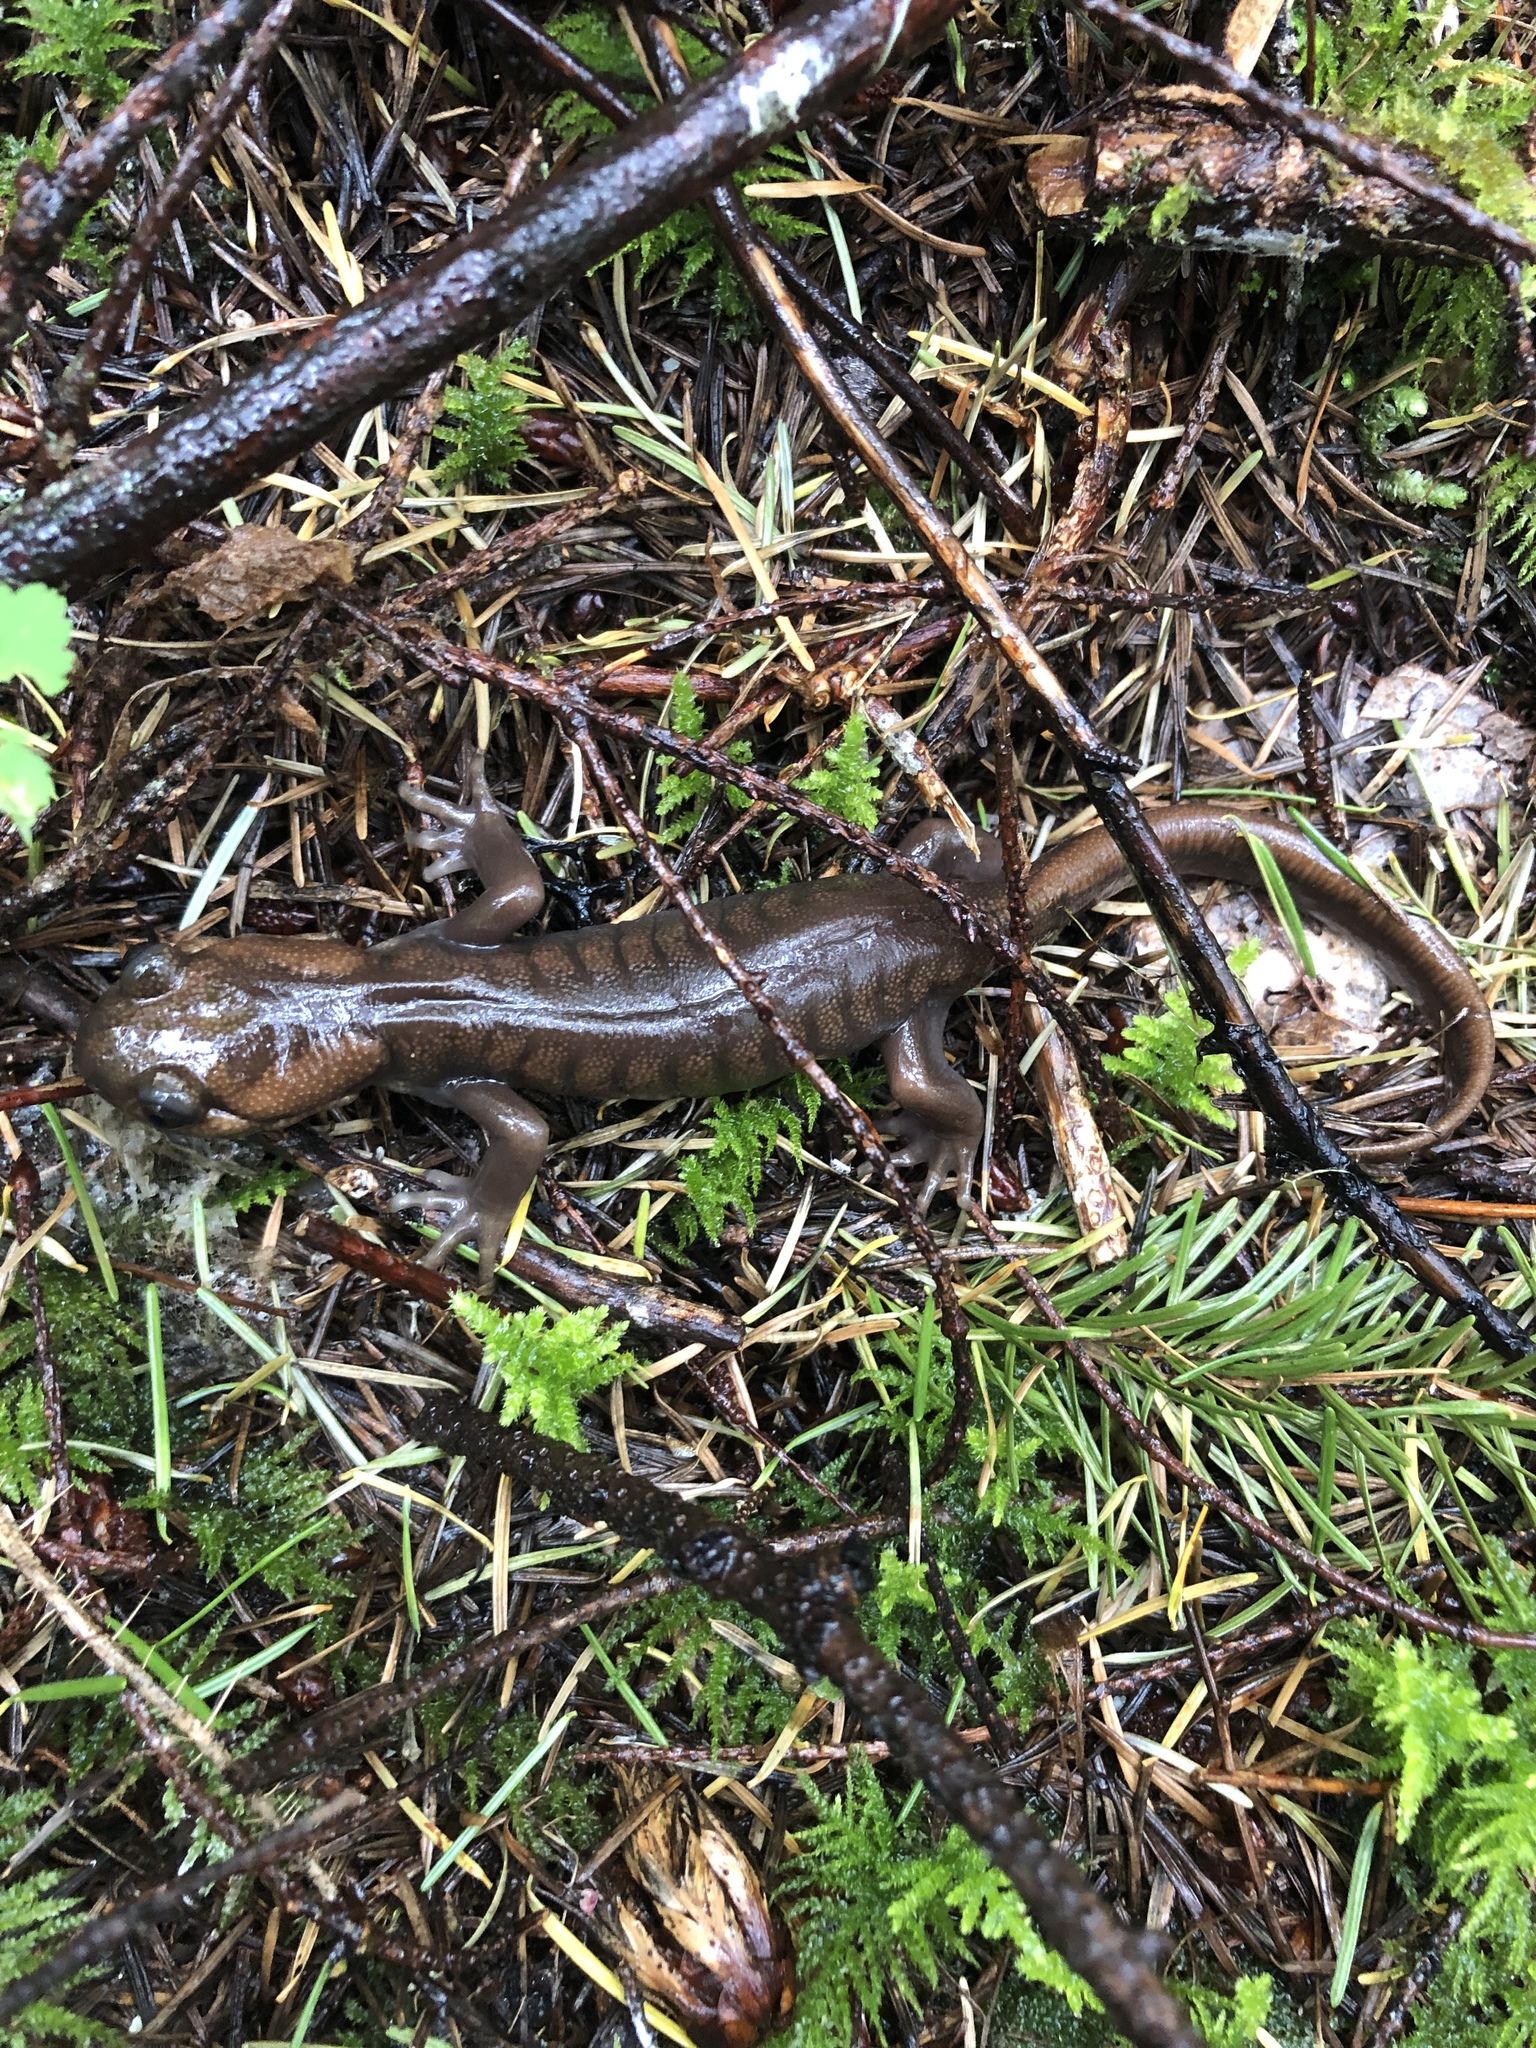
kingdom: Animalia
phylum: Chordata
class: Amphibia
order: Caudata
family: Ambystomatidae
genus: Ambystoma
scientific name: Ambystoma gracile
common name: Northwestern salamander
